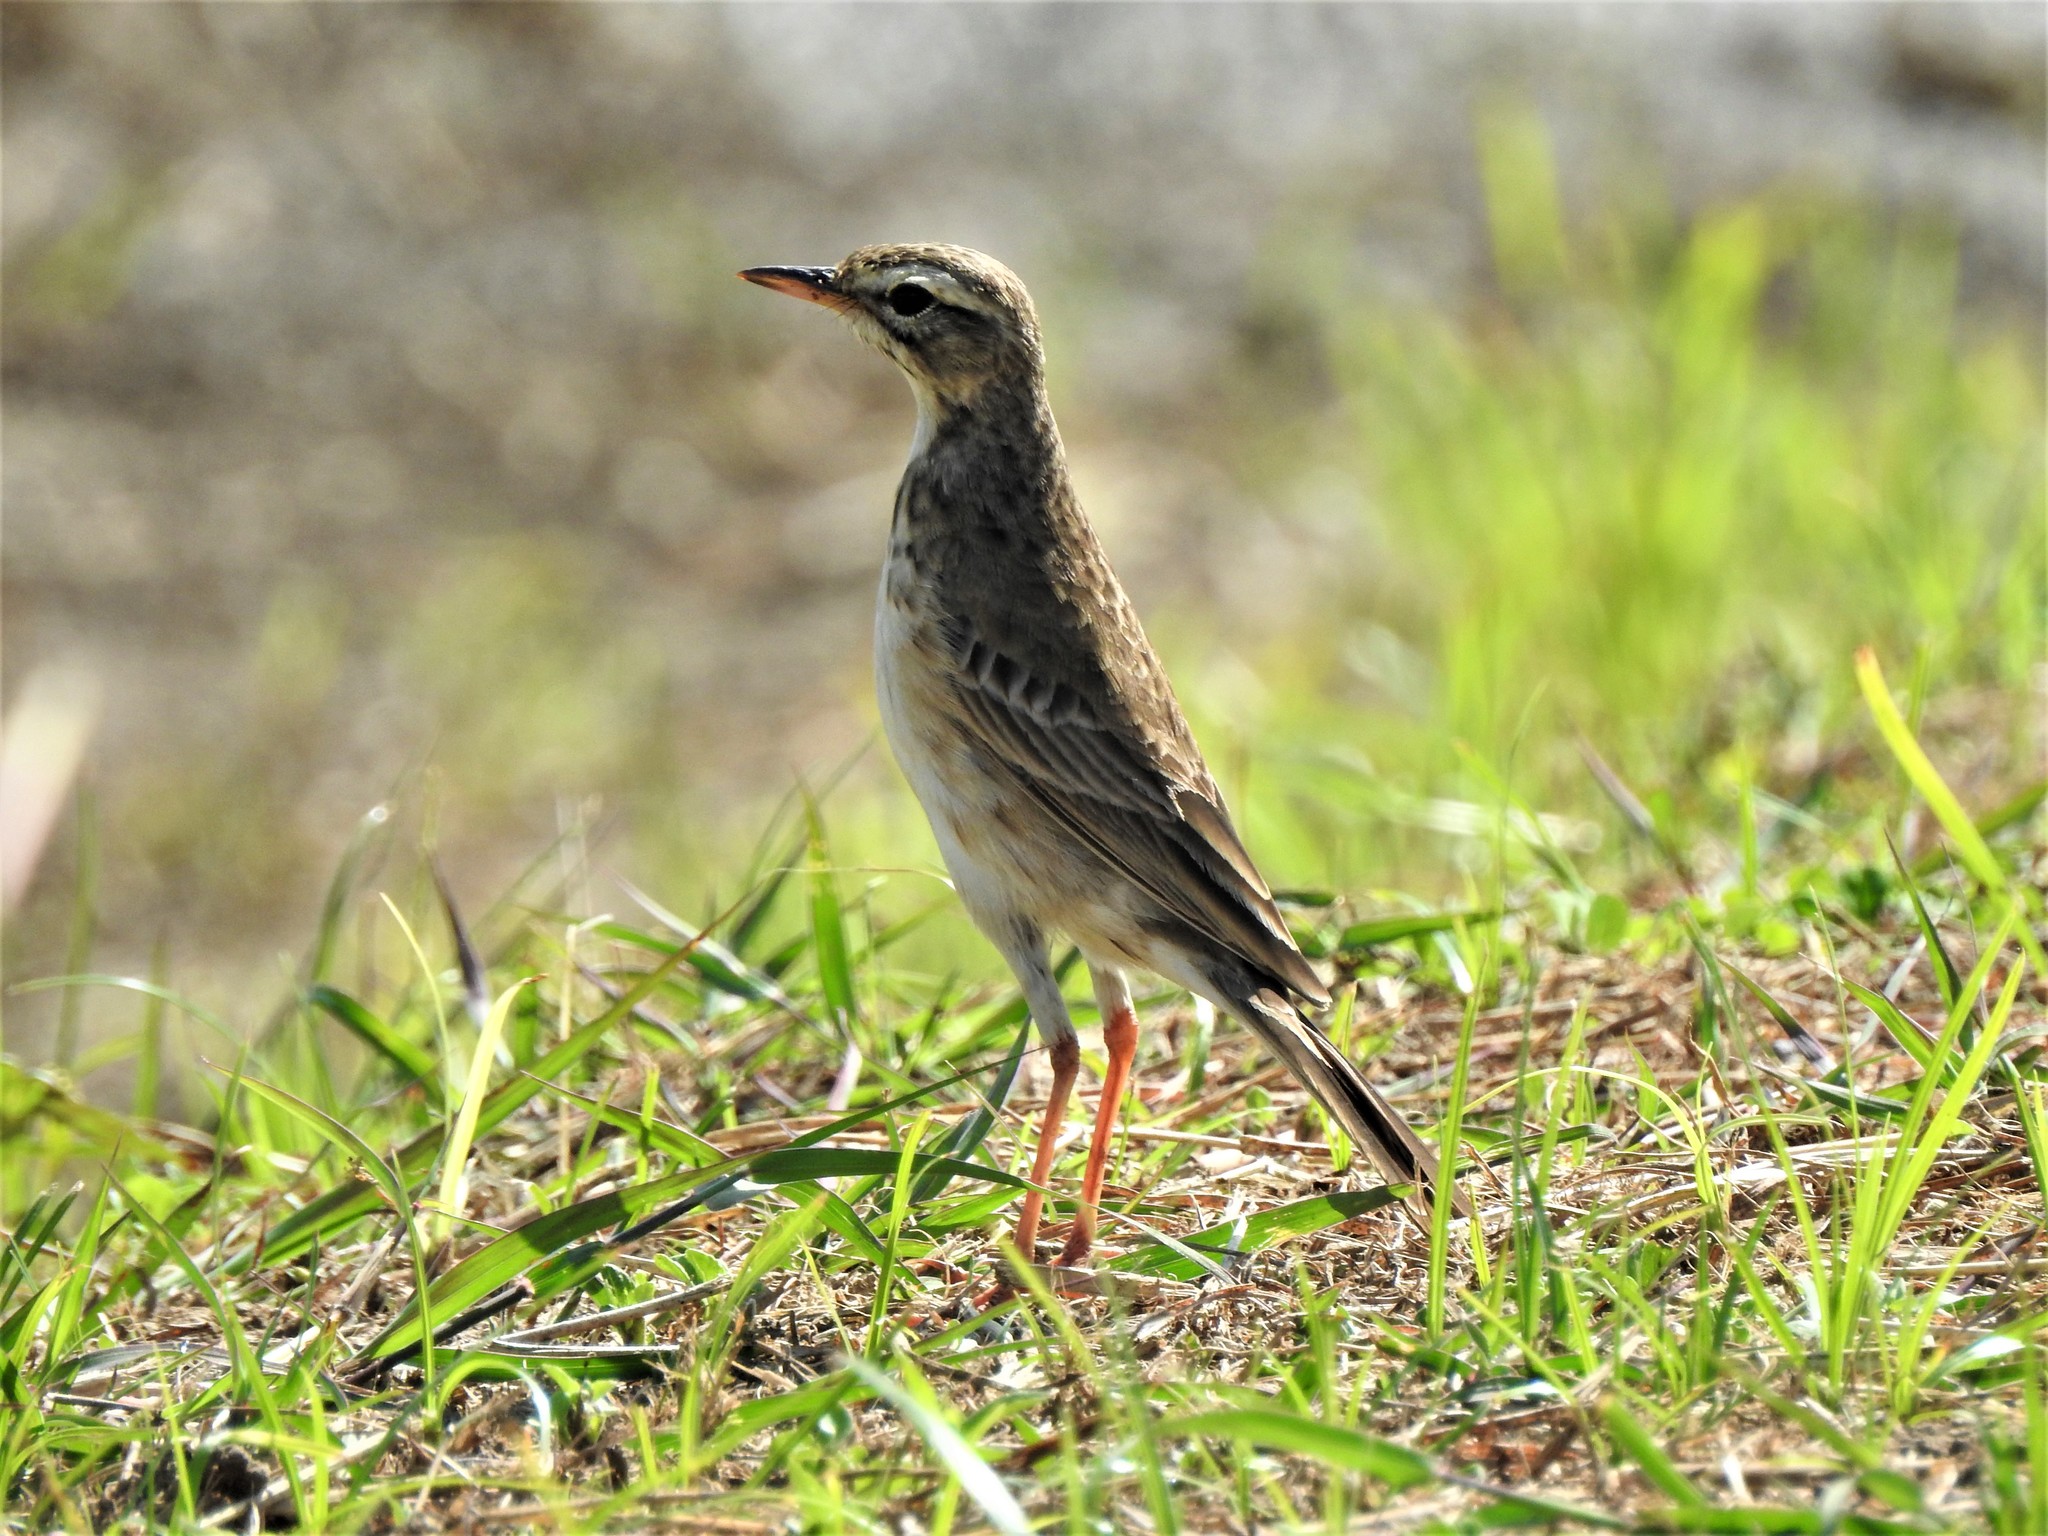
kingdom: Animalia
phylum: Chordata
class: Aves
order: Passeriformes
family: Motacillidae
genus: Anthus
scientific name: Anthus rufulus
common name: Paddyfield pipit
